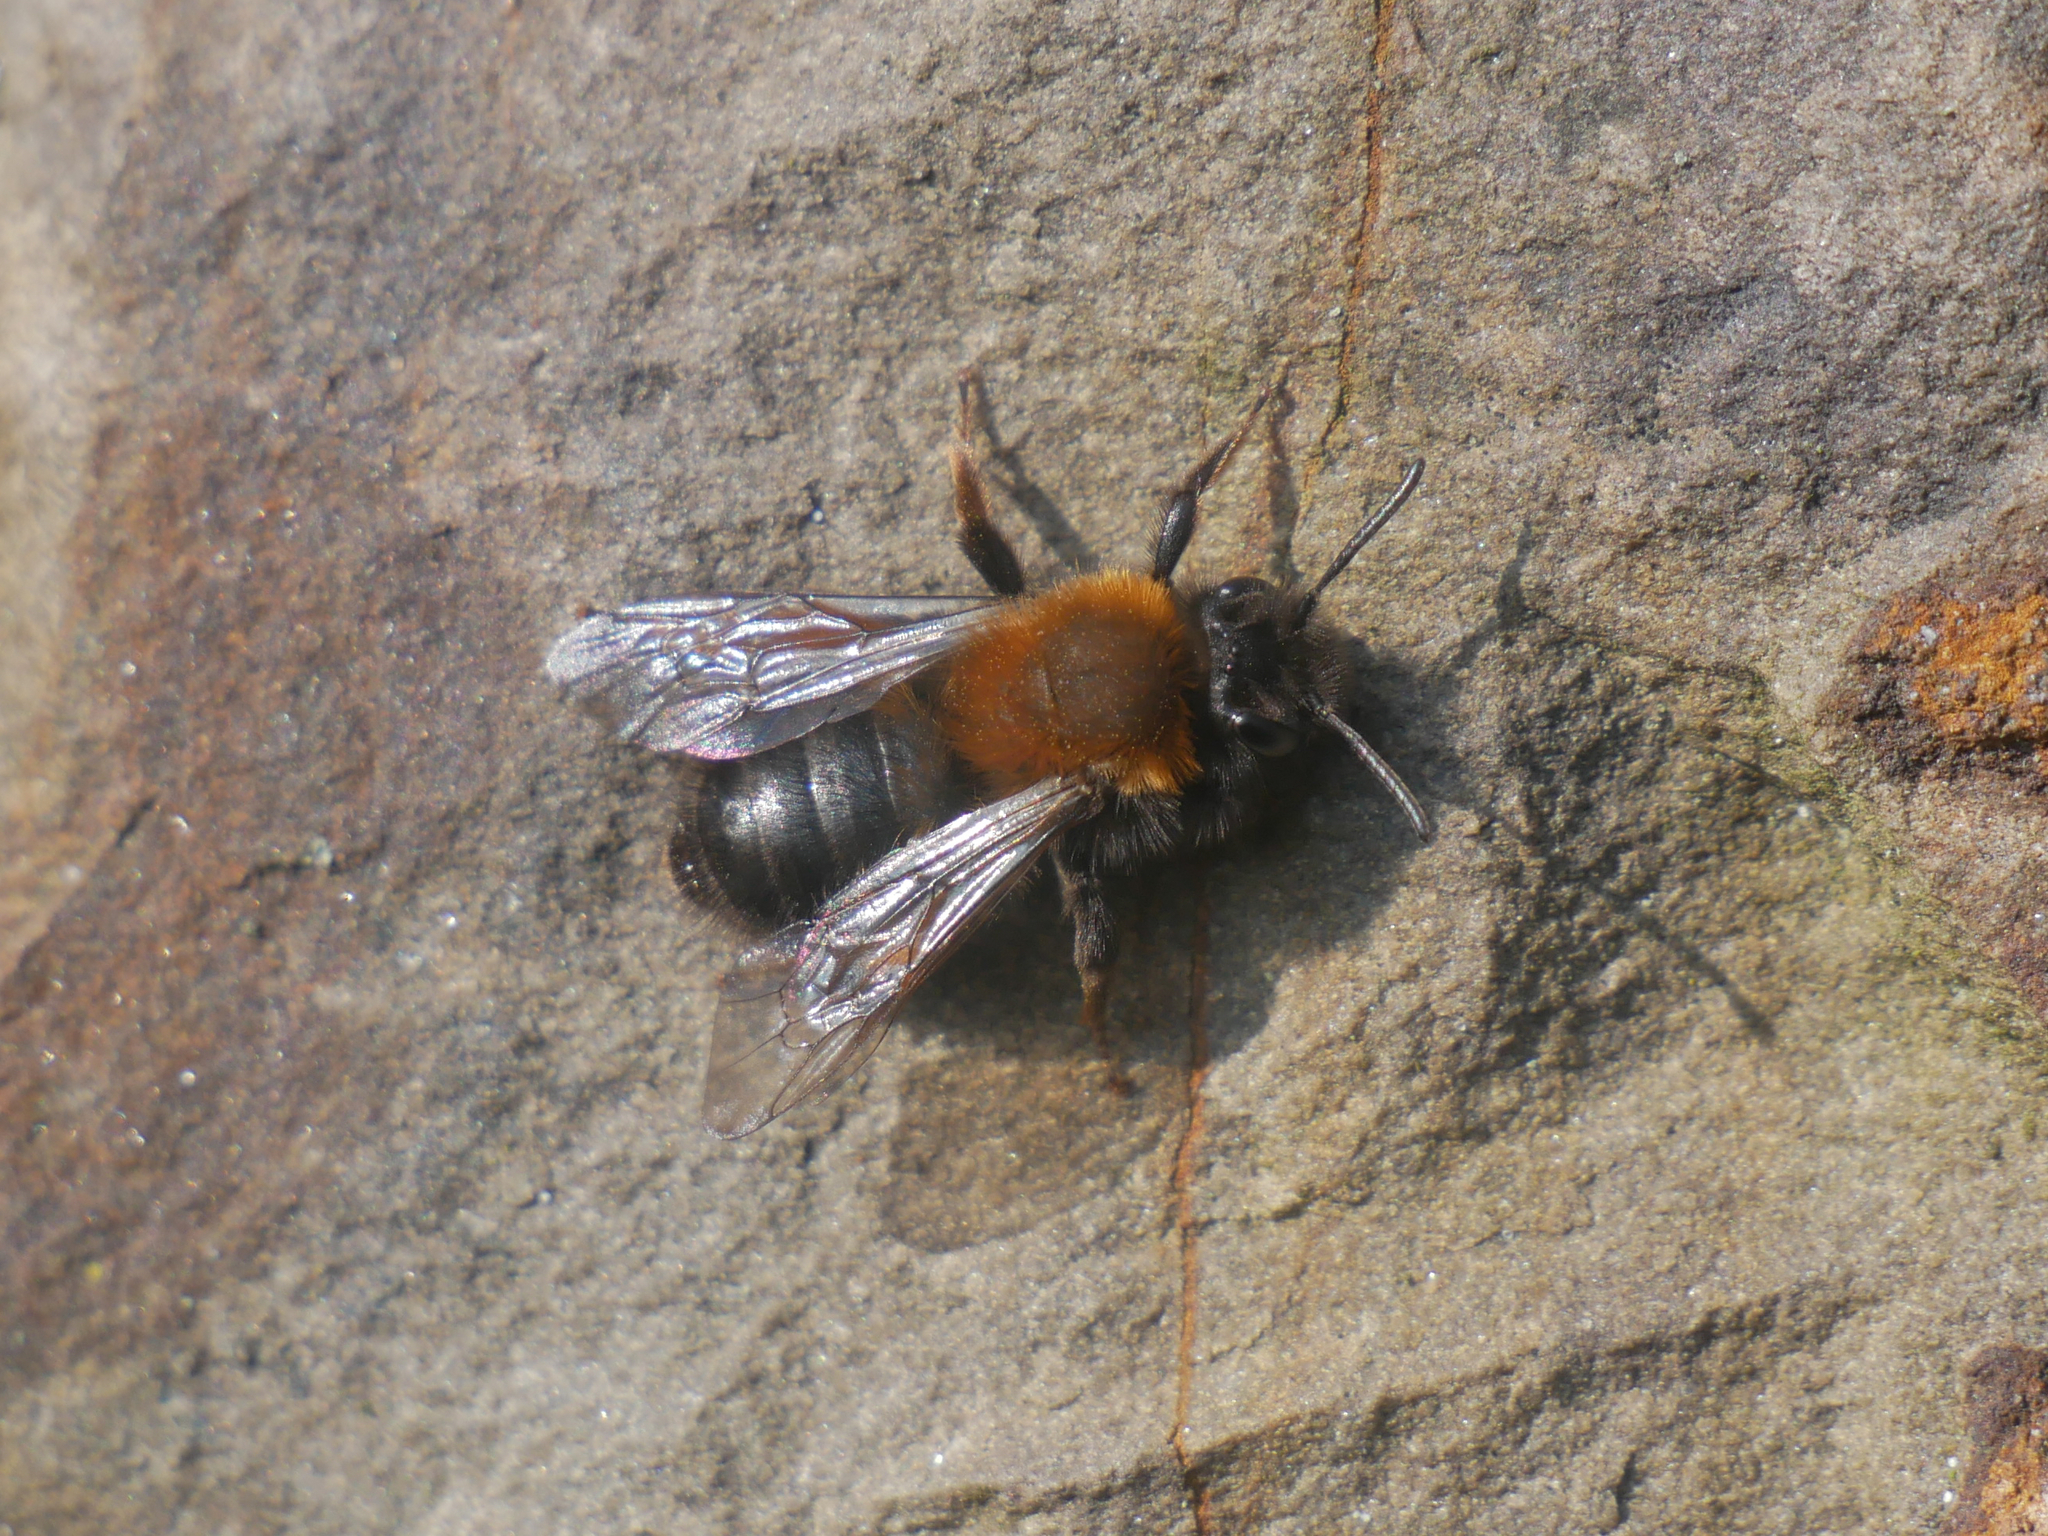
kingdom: Animalia
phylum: Arthropoda
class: Insecta
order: Hymenoptera
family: Andrenidae
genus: Andrena
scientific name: Andrena clarkella
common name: Clarke's mining bee
